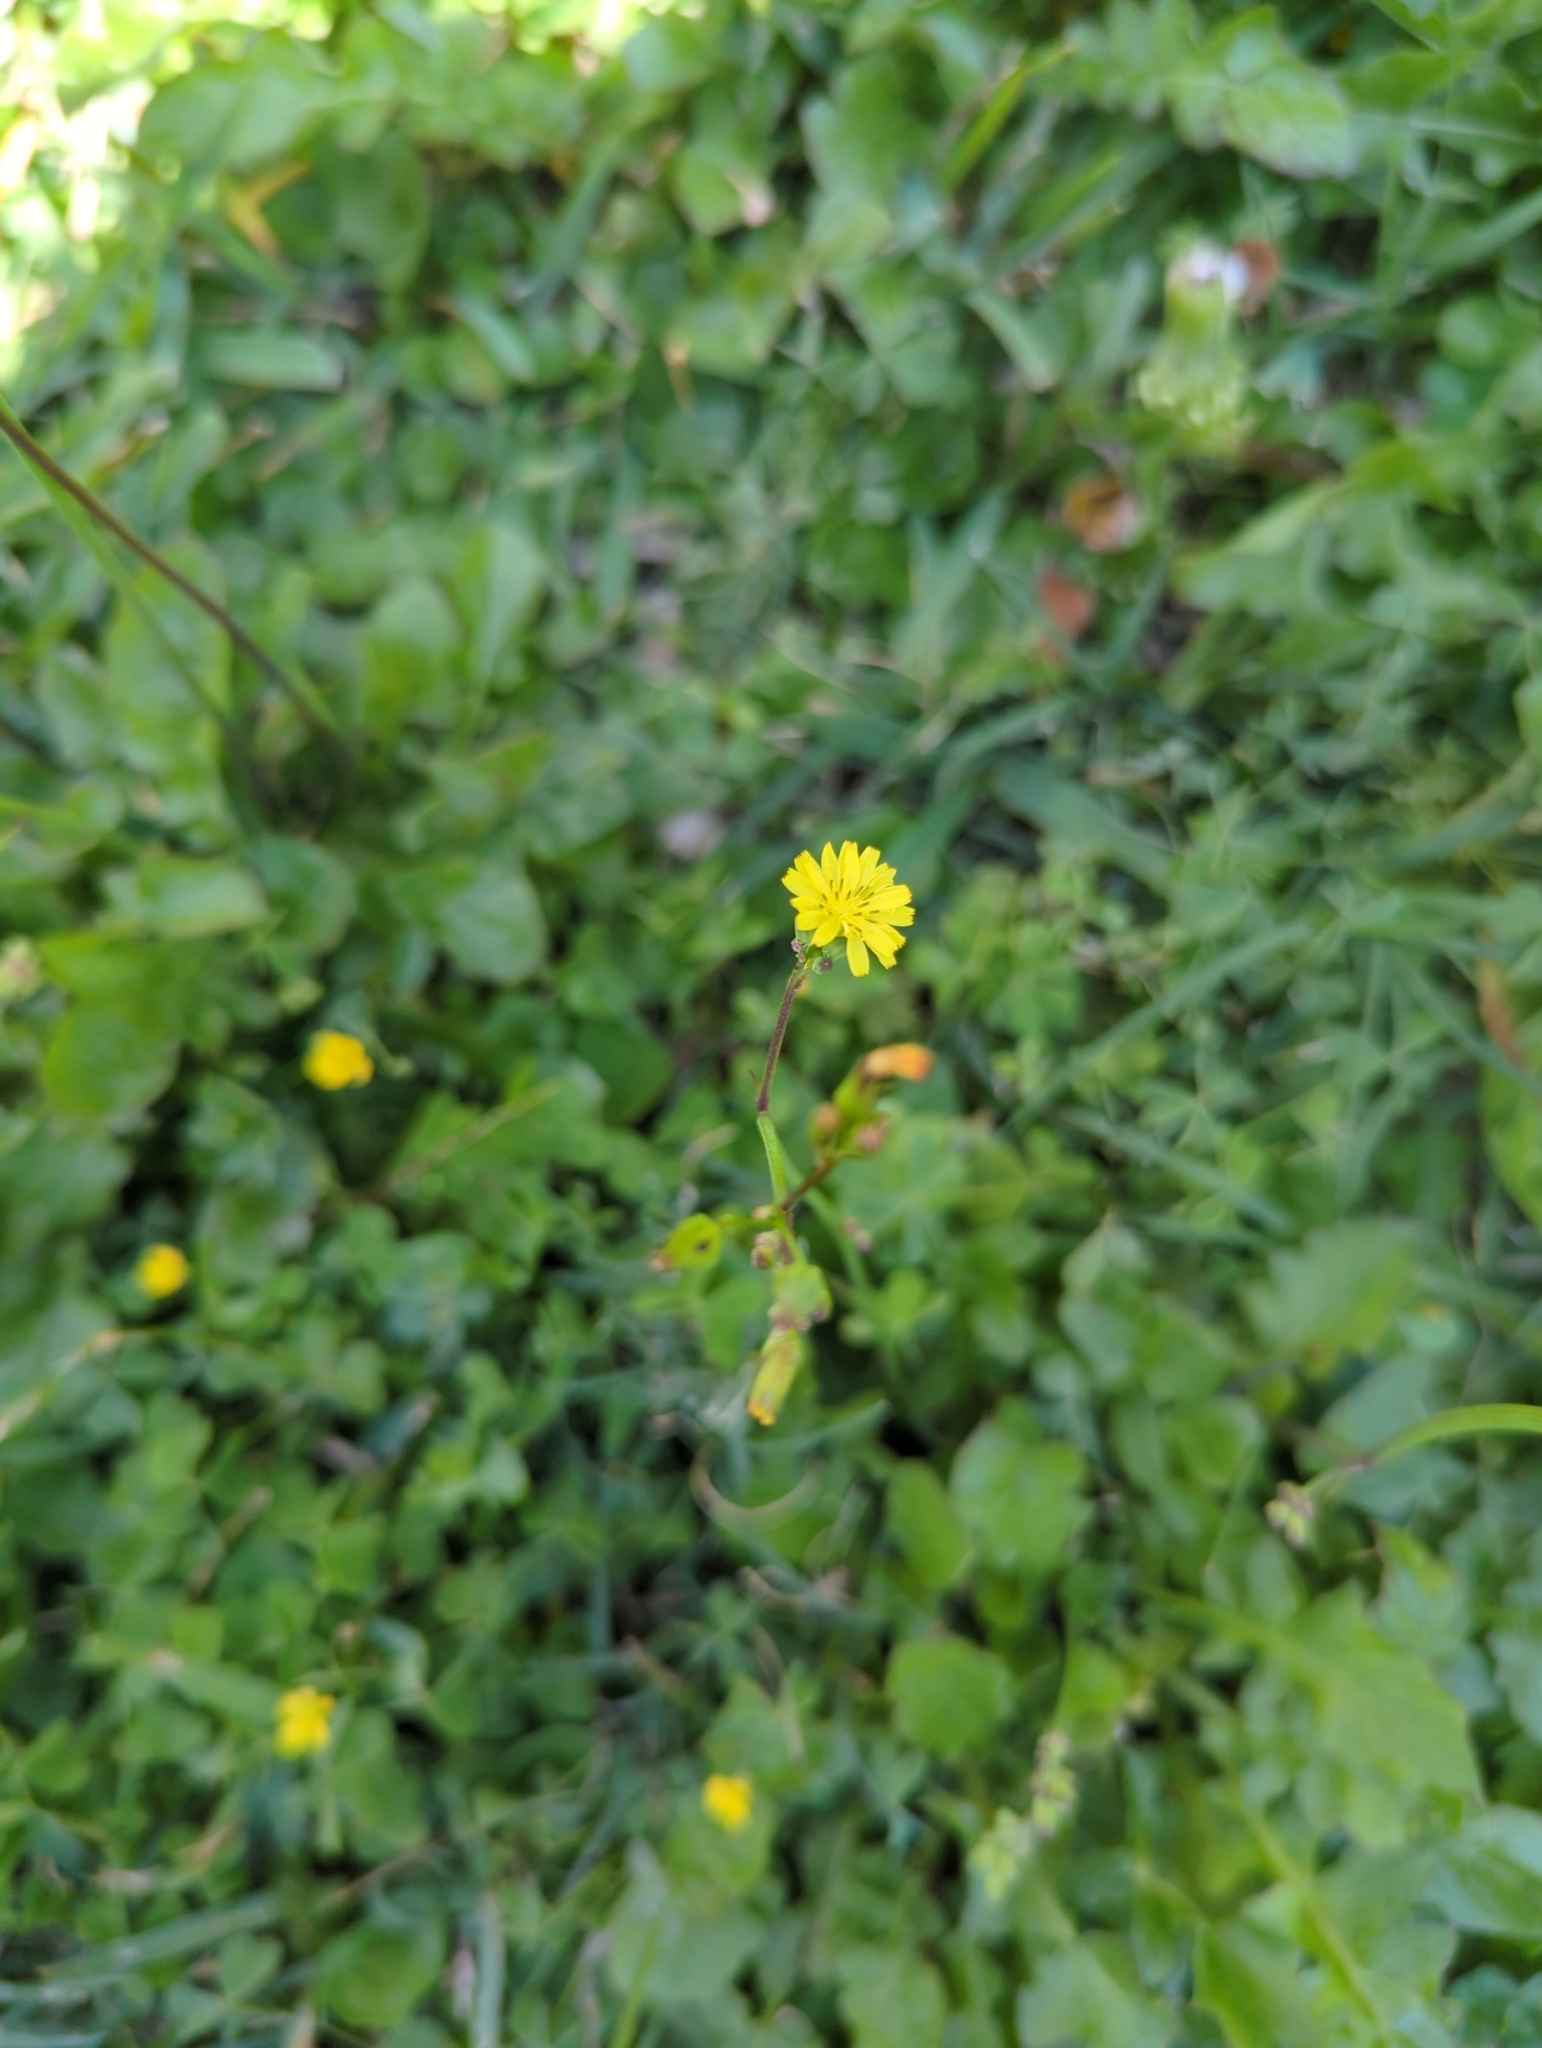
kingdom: Plantae
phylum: Tracheophyta
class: Magnoliopsida
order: Asterales
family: Asteraceae
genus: Youngia
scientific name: Youngia japonica
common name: Oriental false hawksbeard
